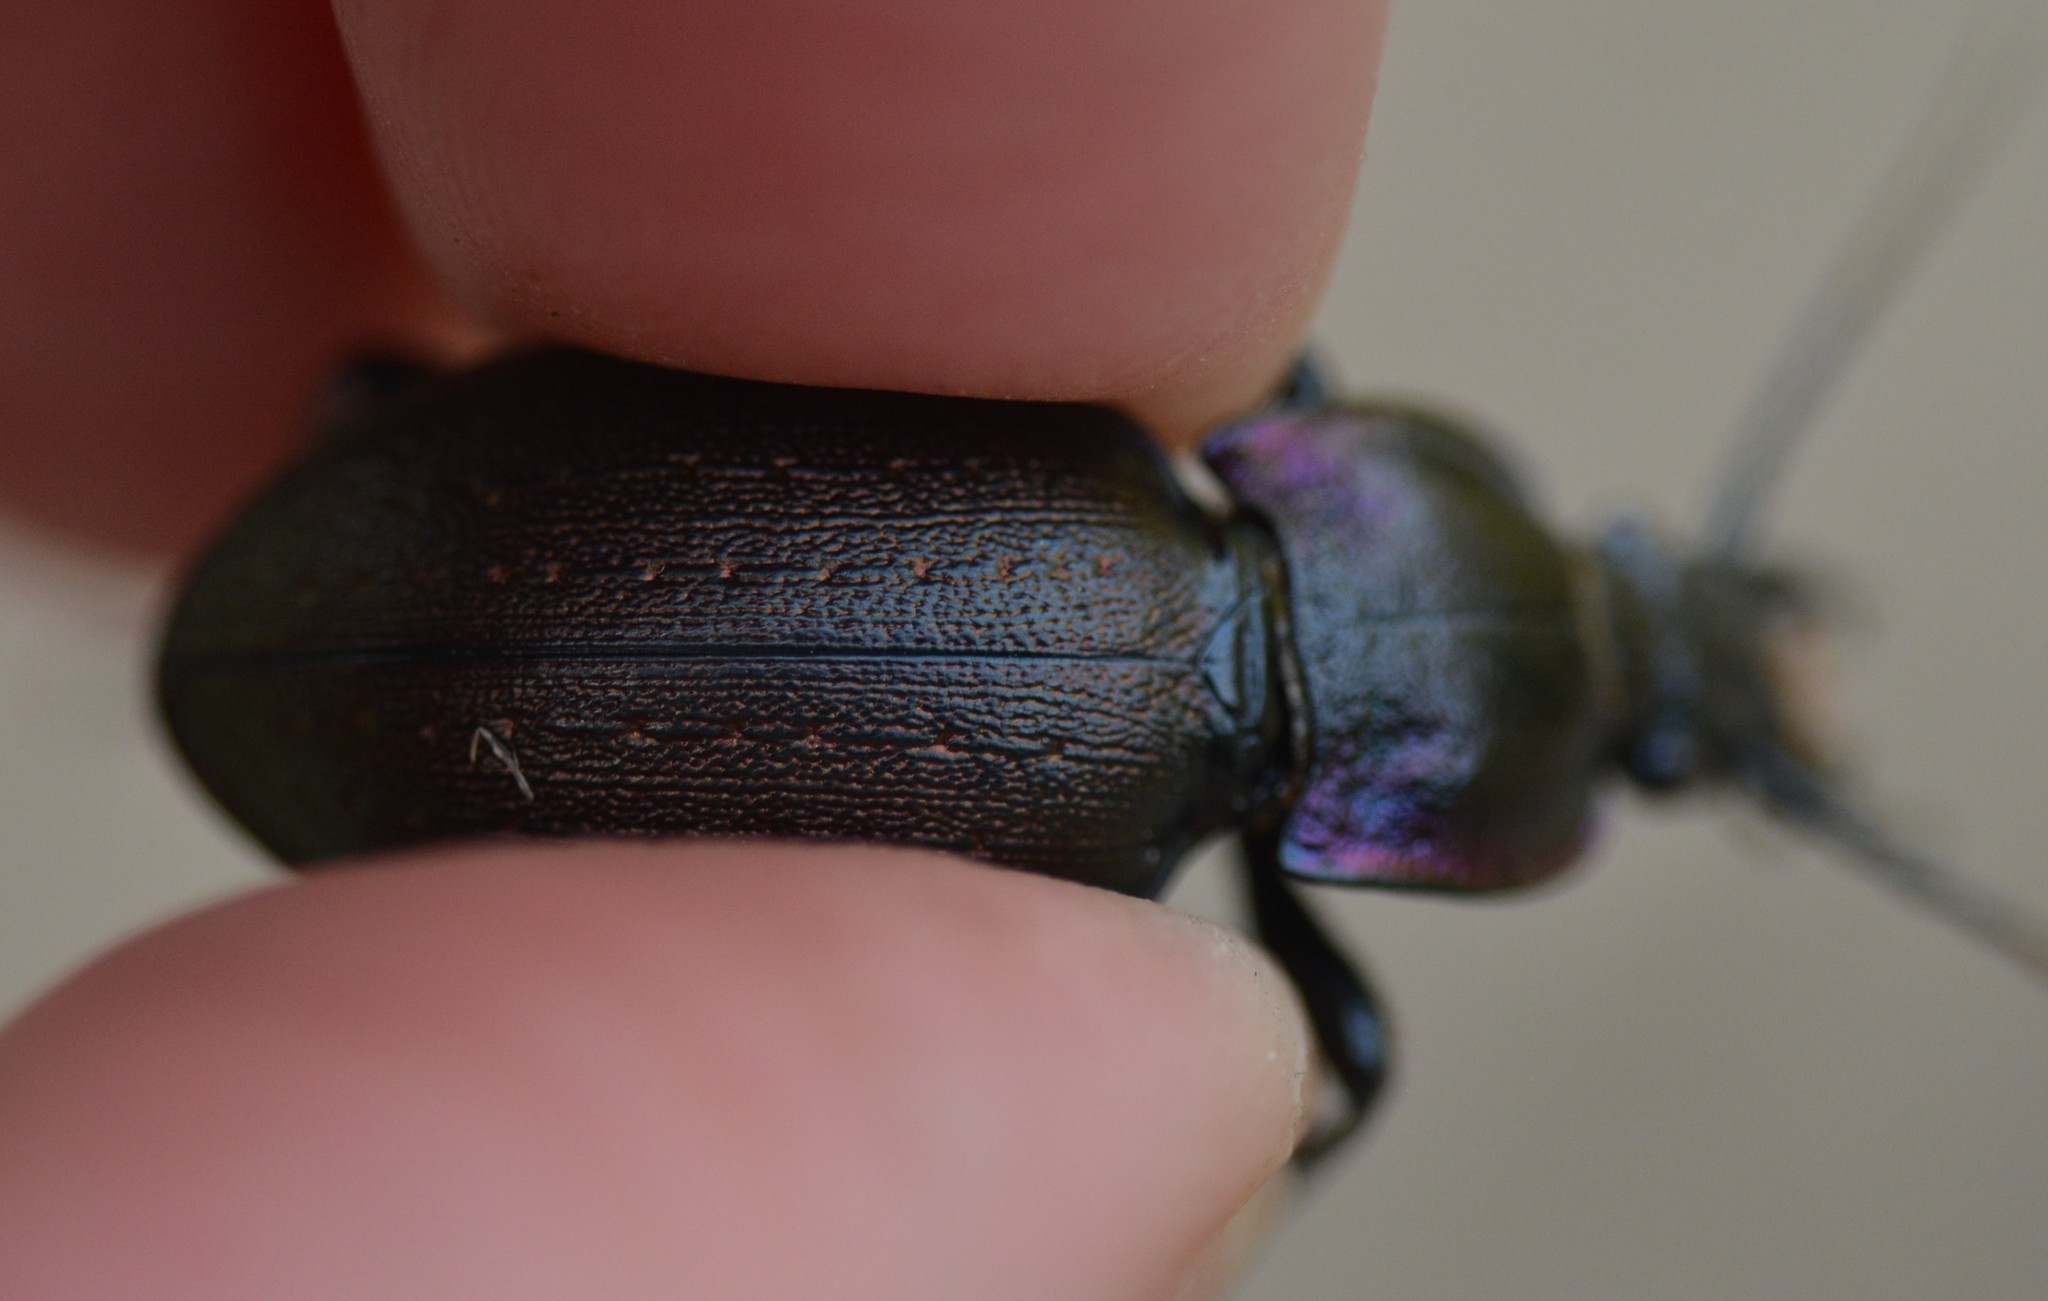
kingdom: Animalia
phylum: Arthropoda
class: Insecta
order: Coleoptera
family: Carabidae
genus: Carabus
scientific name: Carabus nemoralis
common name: European ground beetle
